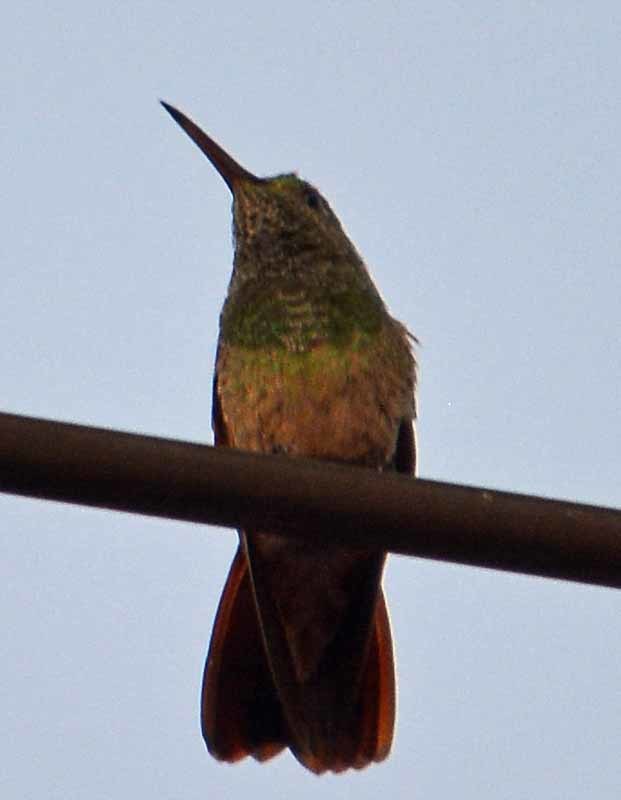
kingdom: Animalia
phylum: Chordata
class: Aves
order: Apodiformes
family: Trochilidae
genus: Saucerottia
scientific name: Saucerottia beryllina
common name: Berylline hummingbird
